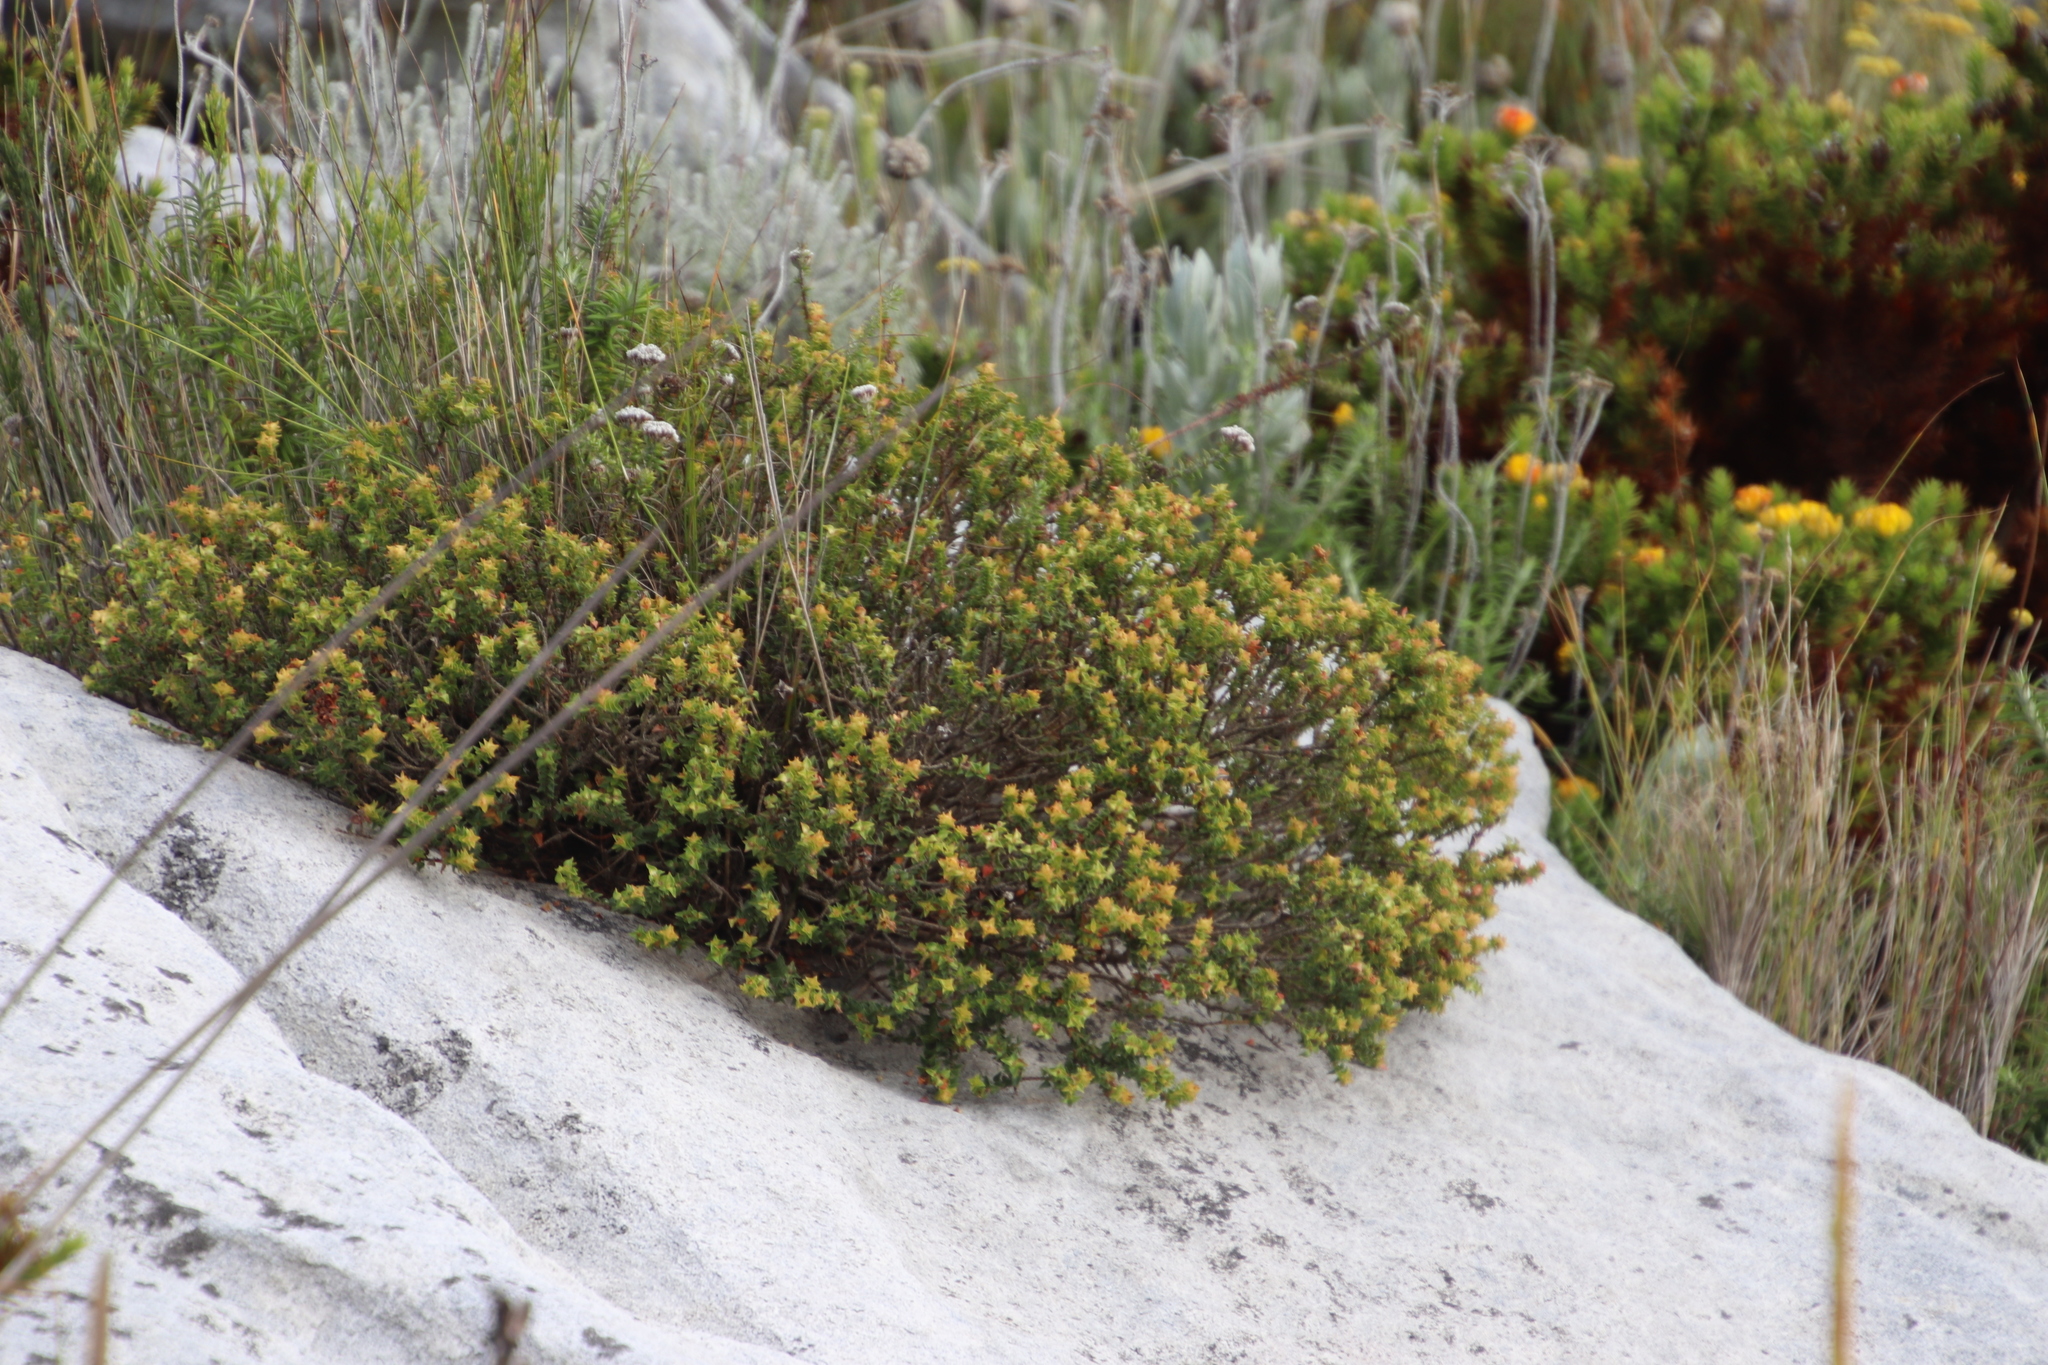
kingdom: Plantae
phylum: Tracheophyta
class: Magnoliopsida
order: Myrtales
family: Penaeaceae
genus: Penaea
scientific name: Penaea mucronata
